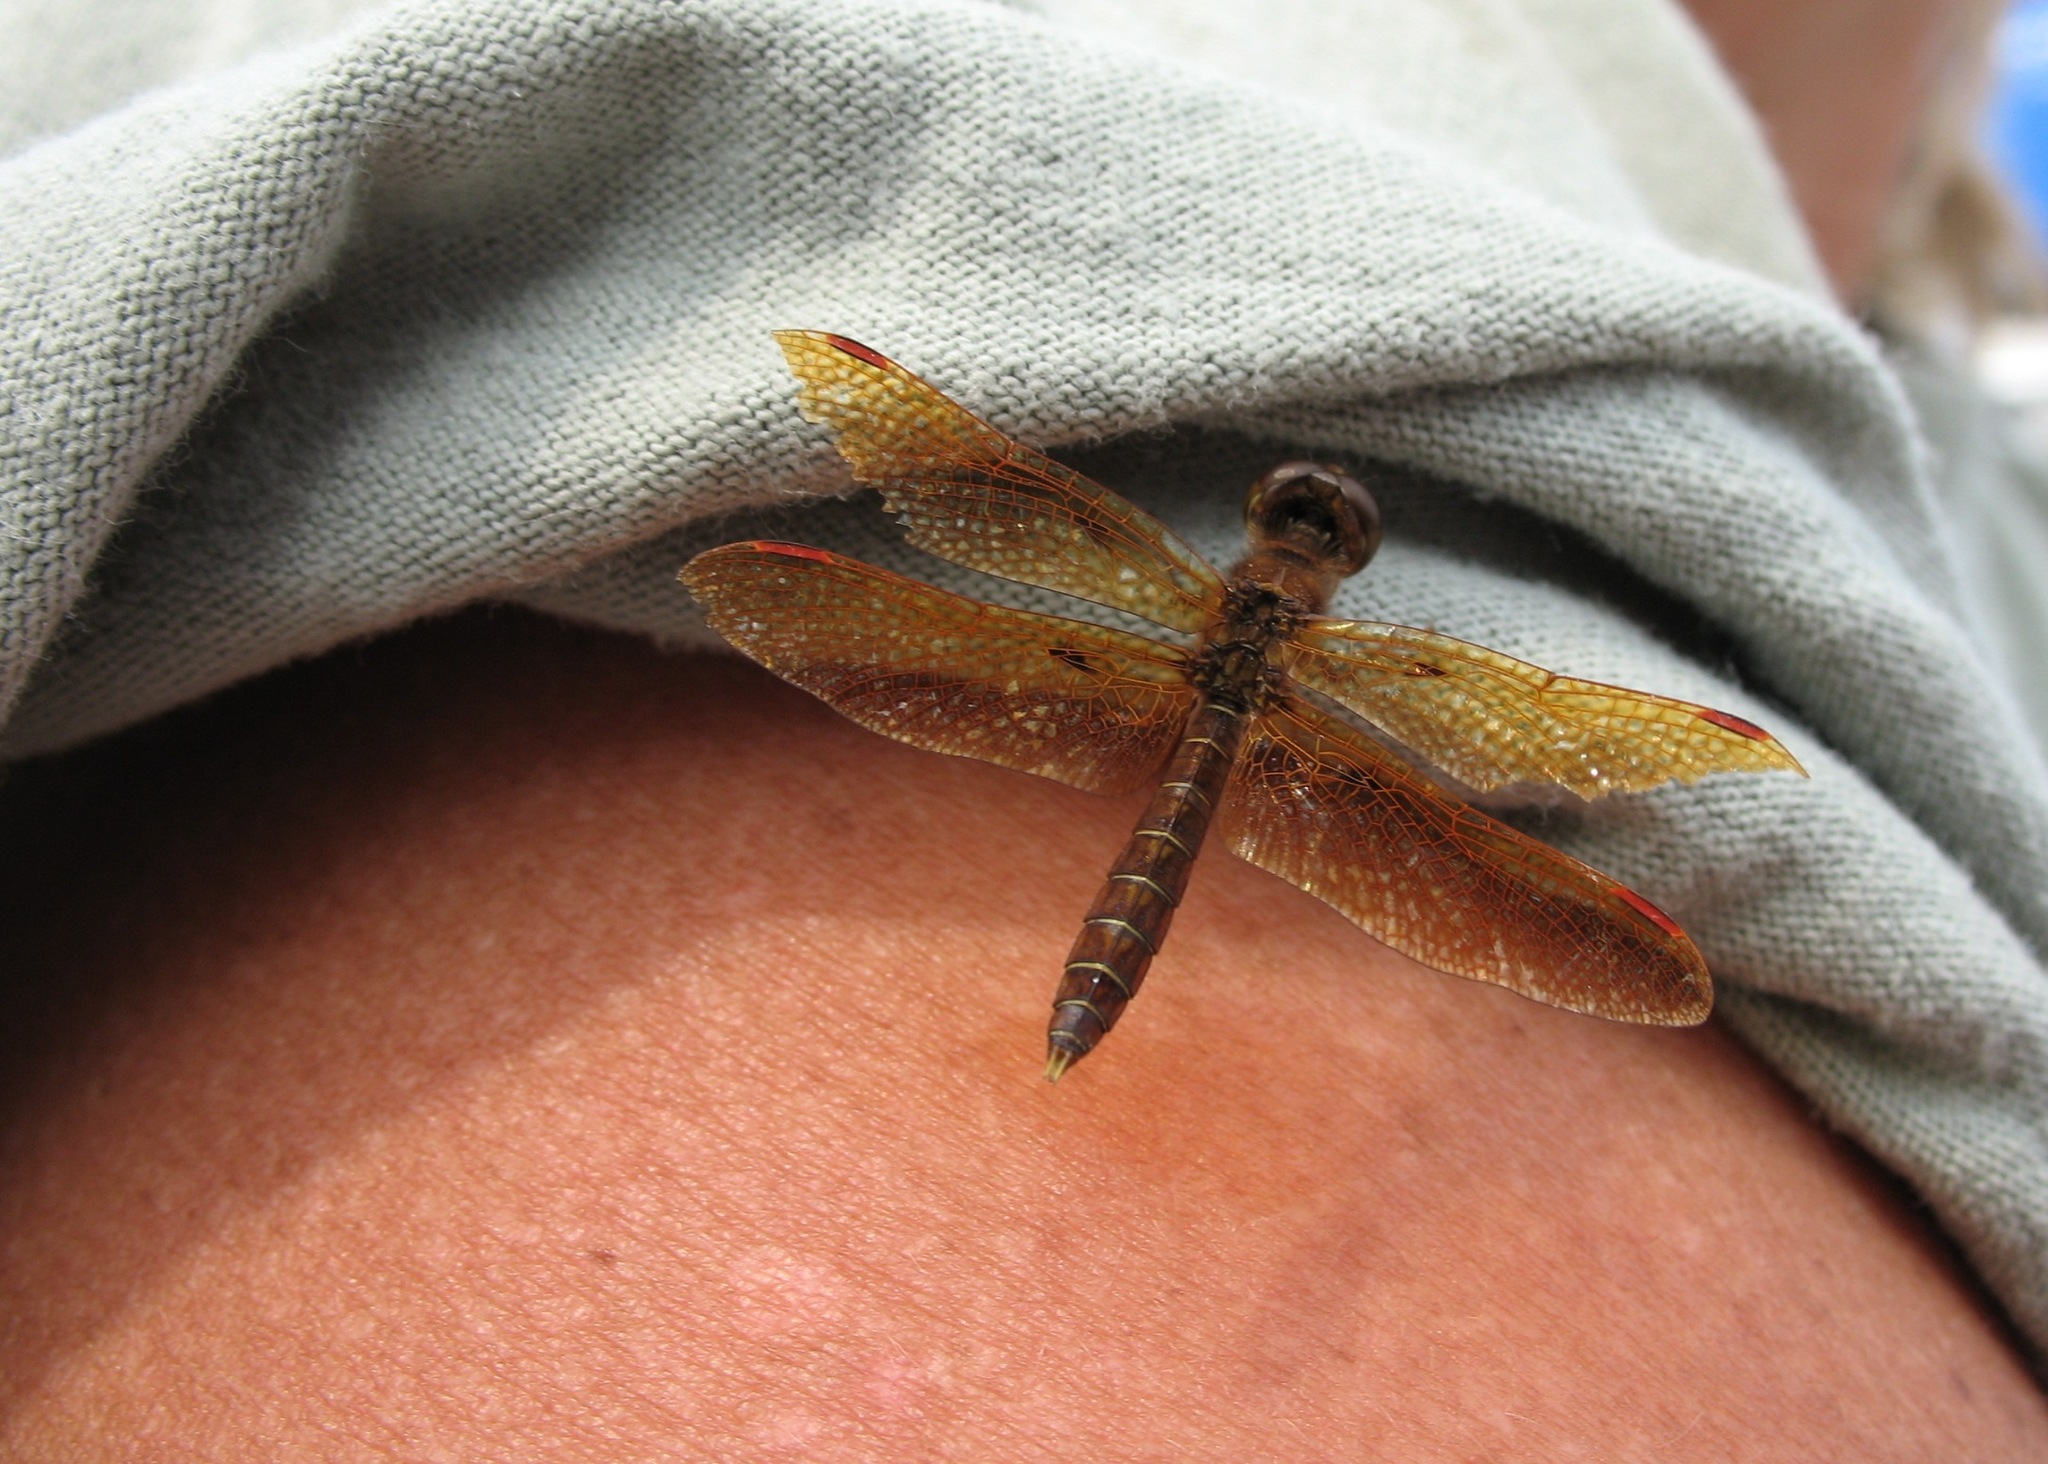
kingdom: Animalia
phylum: Arthropoda
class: Insecta
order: Odonata
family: Libellulidae
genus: Perithemis
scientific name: Perithemis tenera
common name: Eastern amberwing
